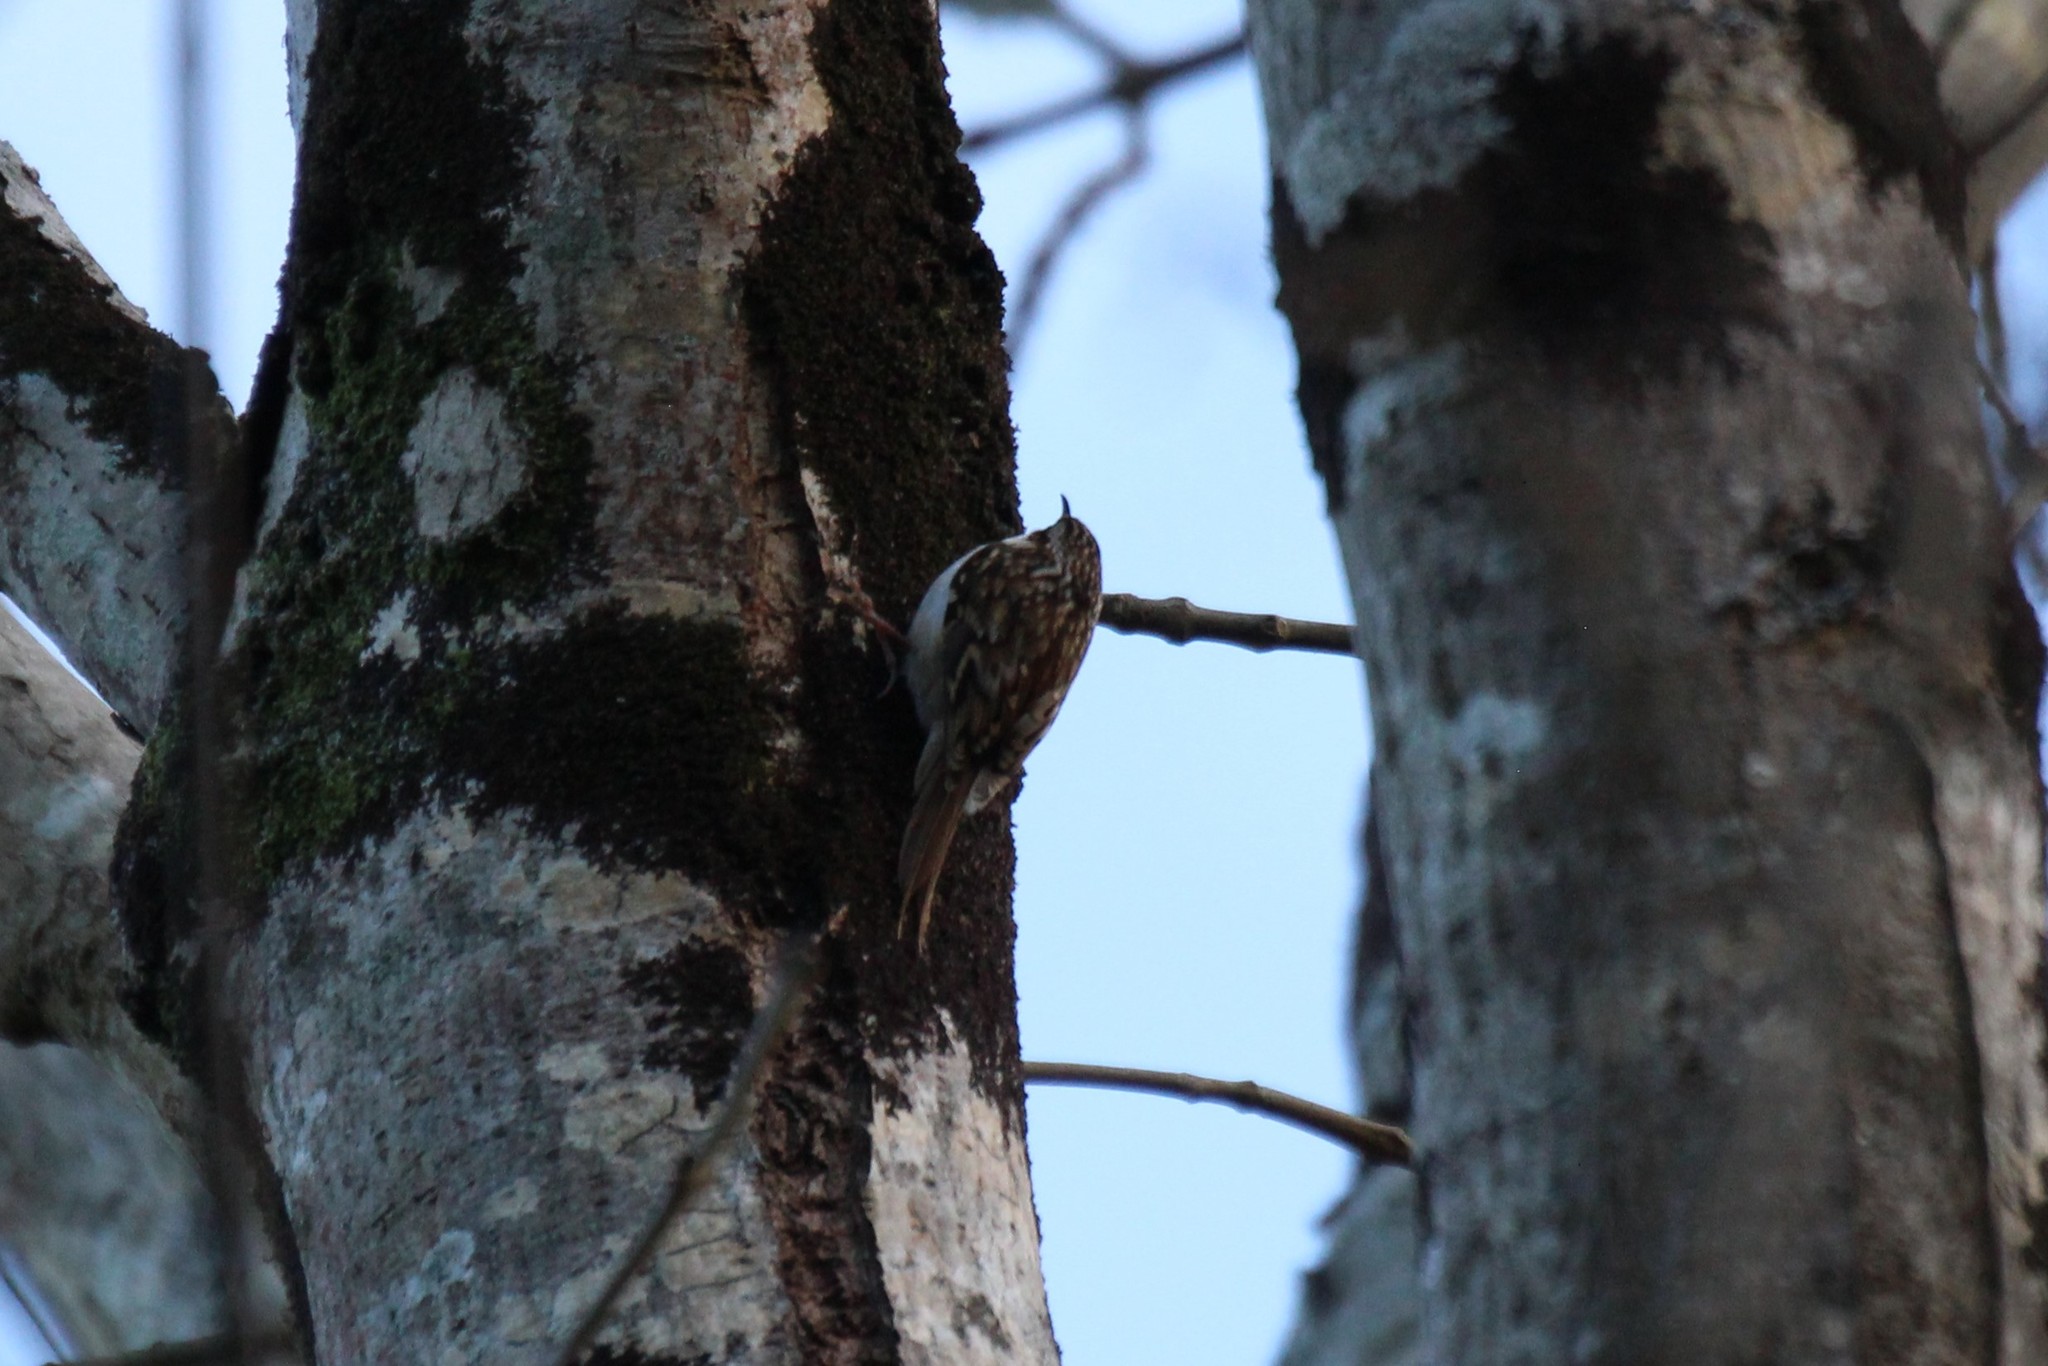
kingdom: Animalia
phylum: Chordata
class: Aves
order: Passeriformes
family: Certhiidae
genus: Certhia
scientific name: Certhia familiaris
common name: Eurasian treecreeper
